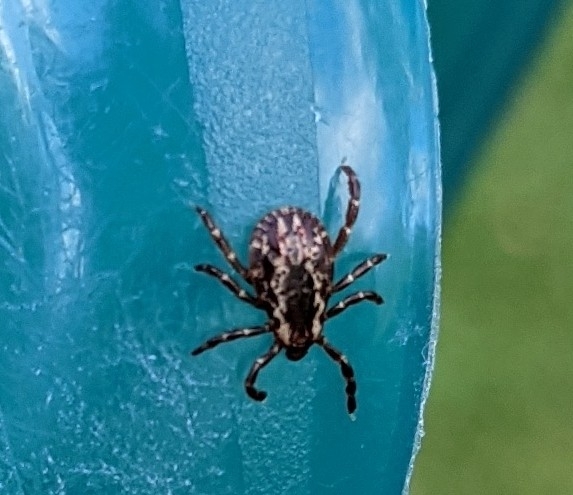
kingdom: Animalia
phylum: Arthropoda
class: Arachnida
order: Ixodida
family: Ixodidae
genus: Dermacentor
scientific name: Dermacentor variabilis
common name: American dog tick
